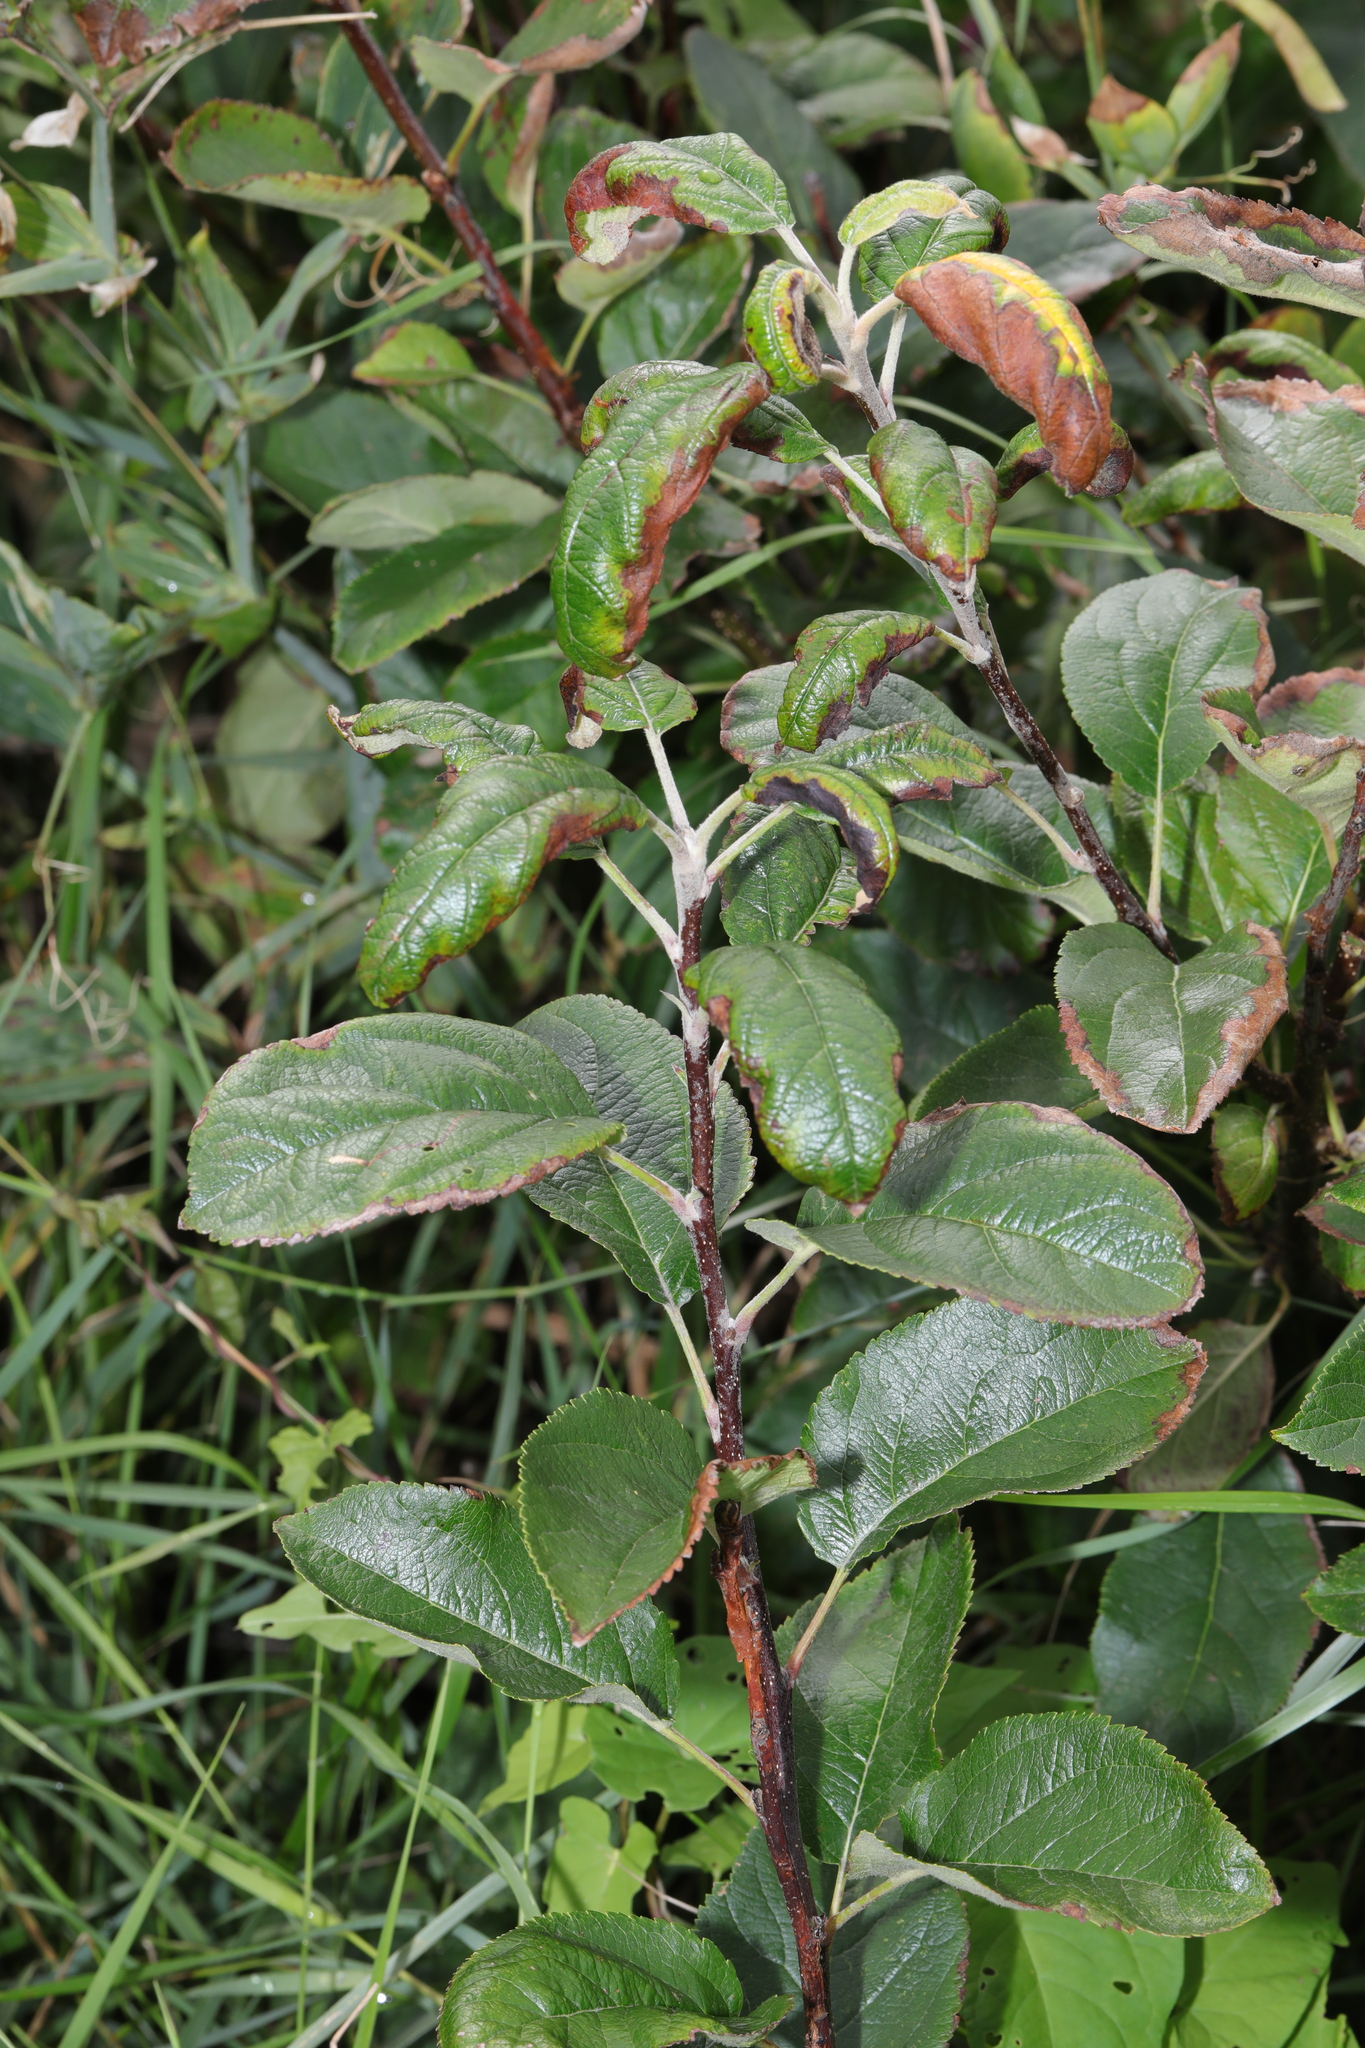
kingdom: Plantae
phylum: Tracheophyta
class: Magnoliopsida
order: Rosales
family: Rosaceae
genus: Malus
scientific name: Malus domestica
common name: Apple
